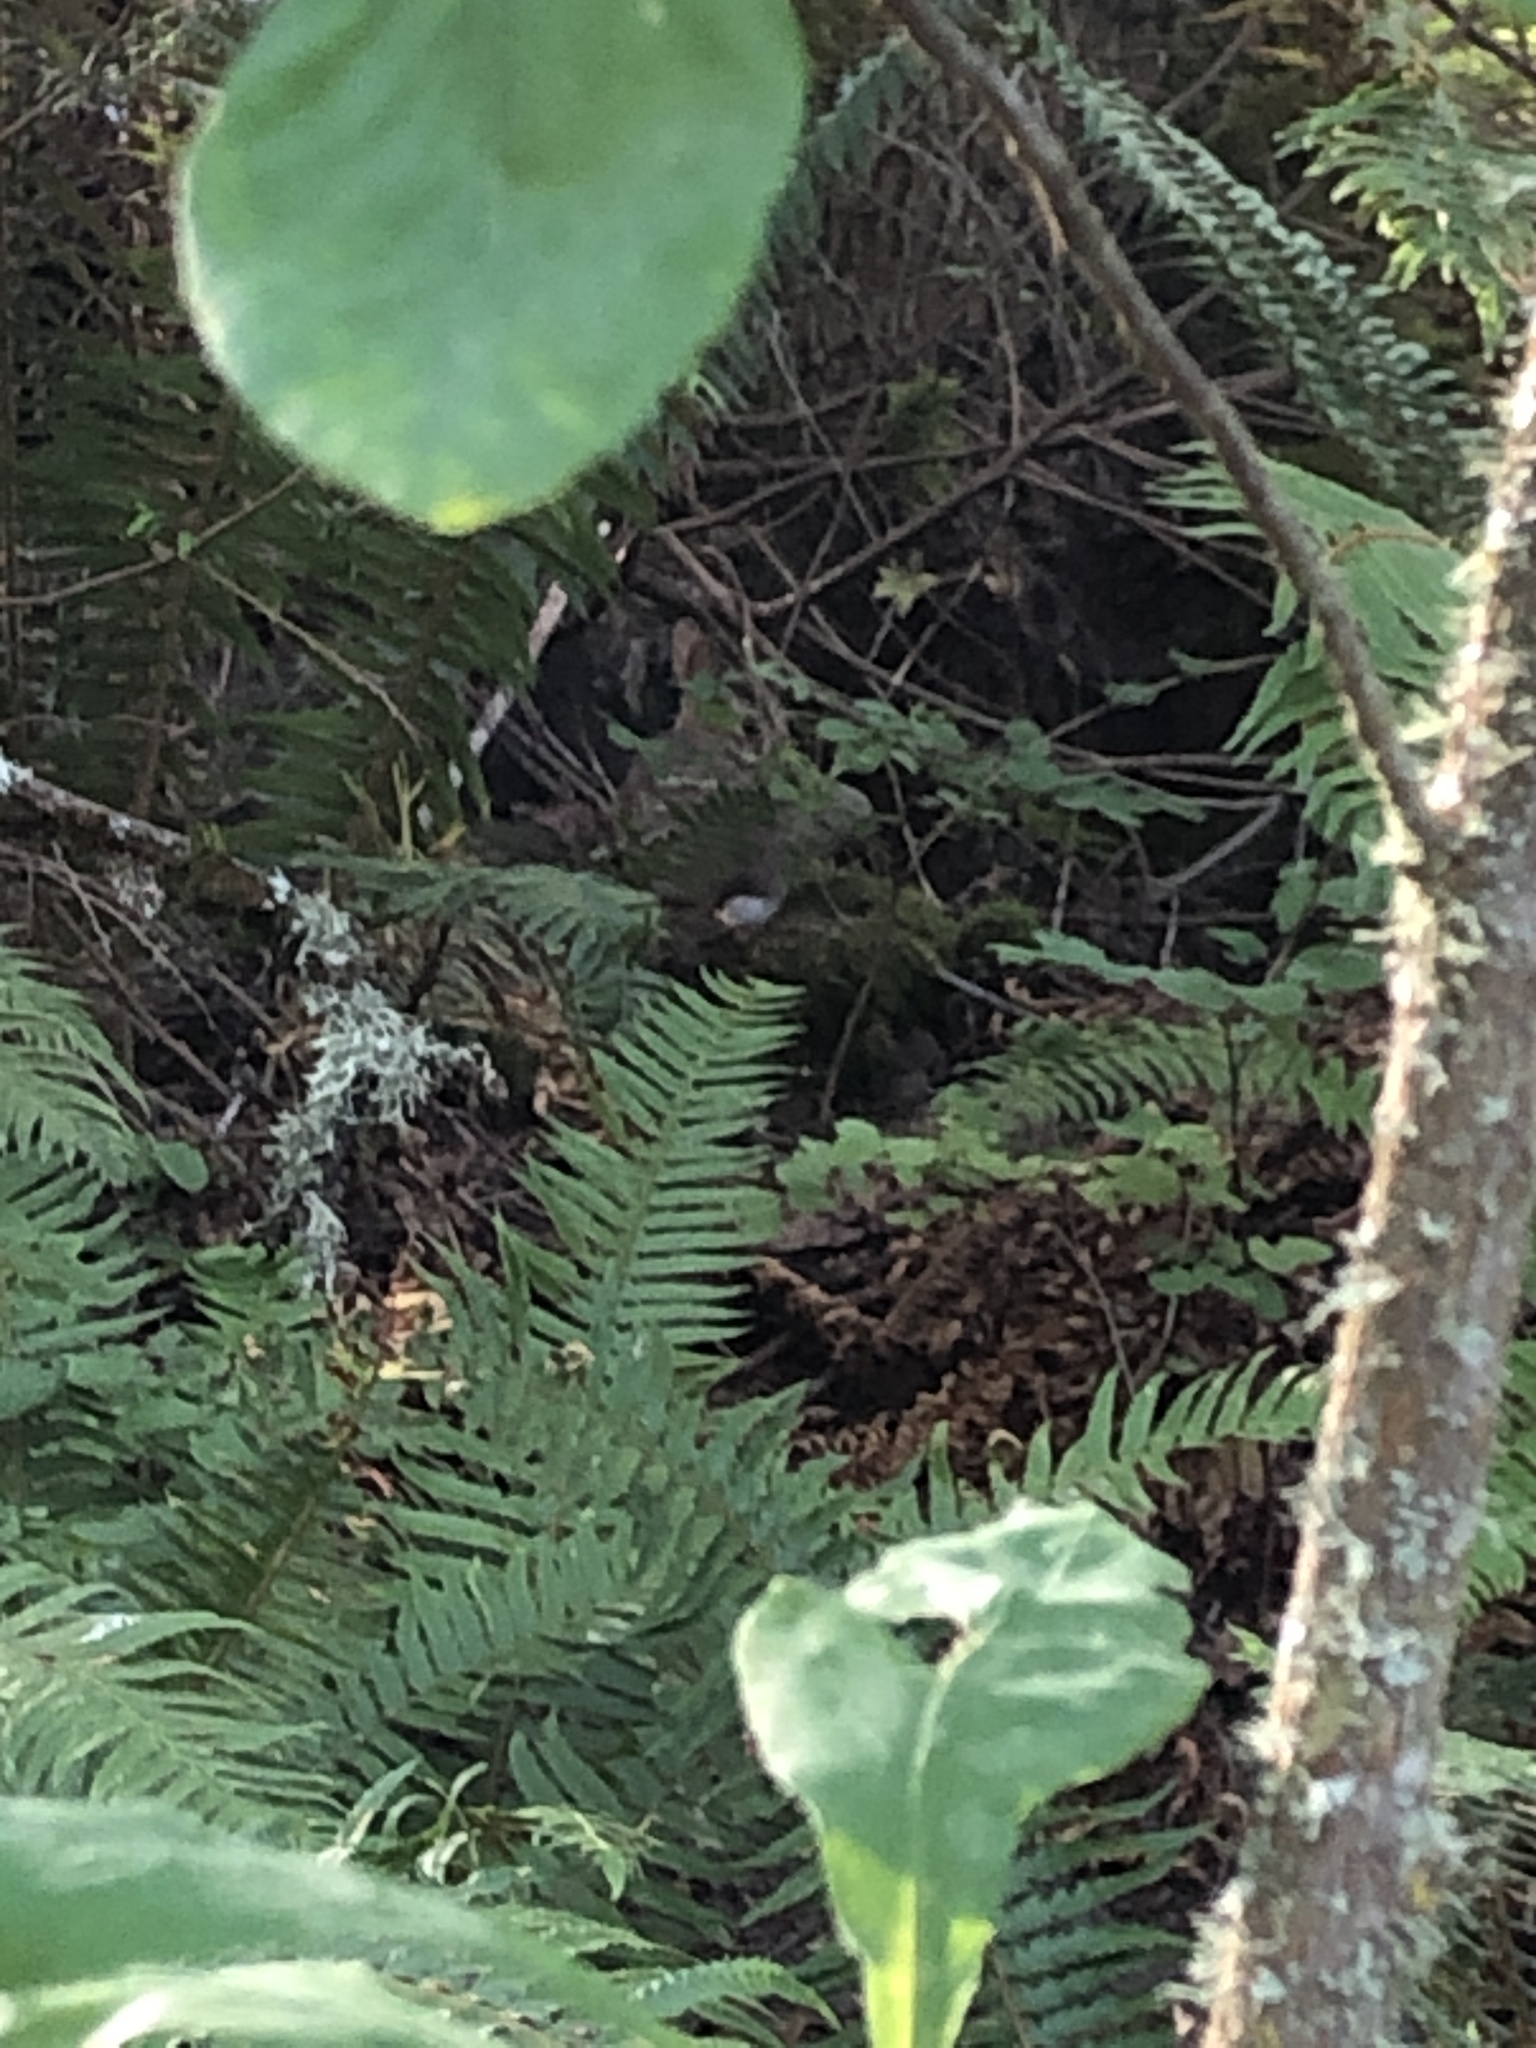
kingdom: Animalia
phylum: Chordata
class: Mammalia
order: Lagomorpha
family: Leporidae
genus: Sylvilagus
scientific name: Sylvilagus floridanus
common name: Eastern cottontail
